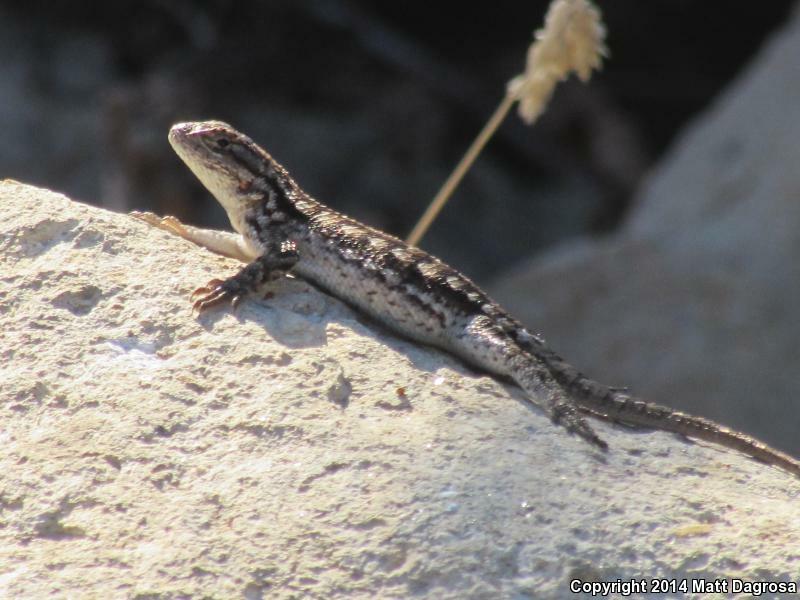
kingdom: Animalia
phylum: Chordata
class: Squamata
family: Phrynosomatidae
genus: Sceloporus
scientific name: Sceloporus occidentalis
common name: Western fence lizard
